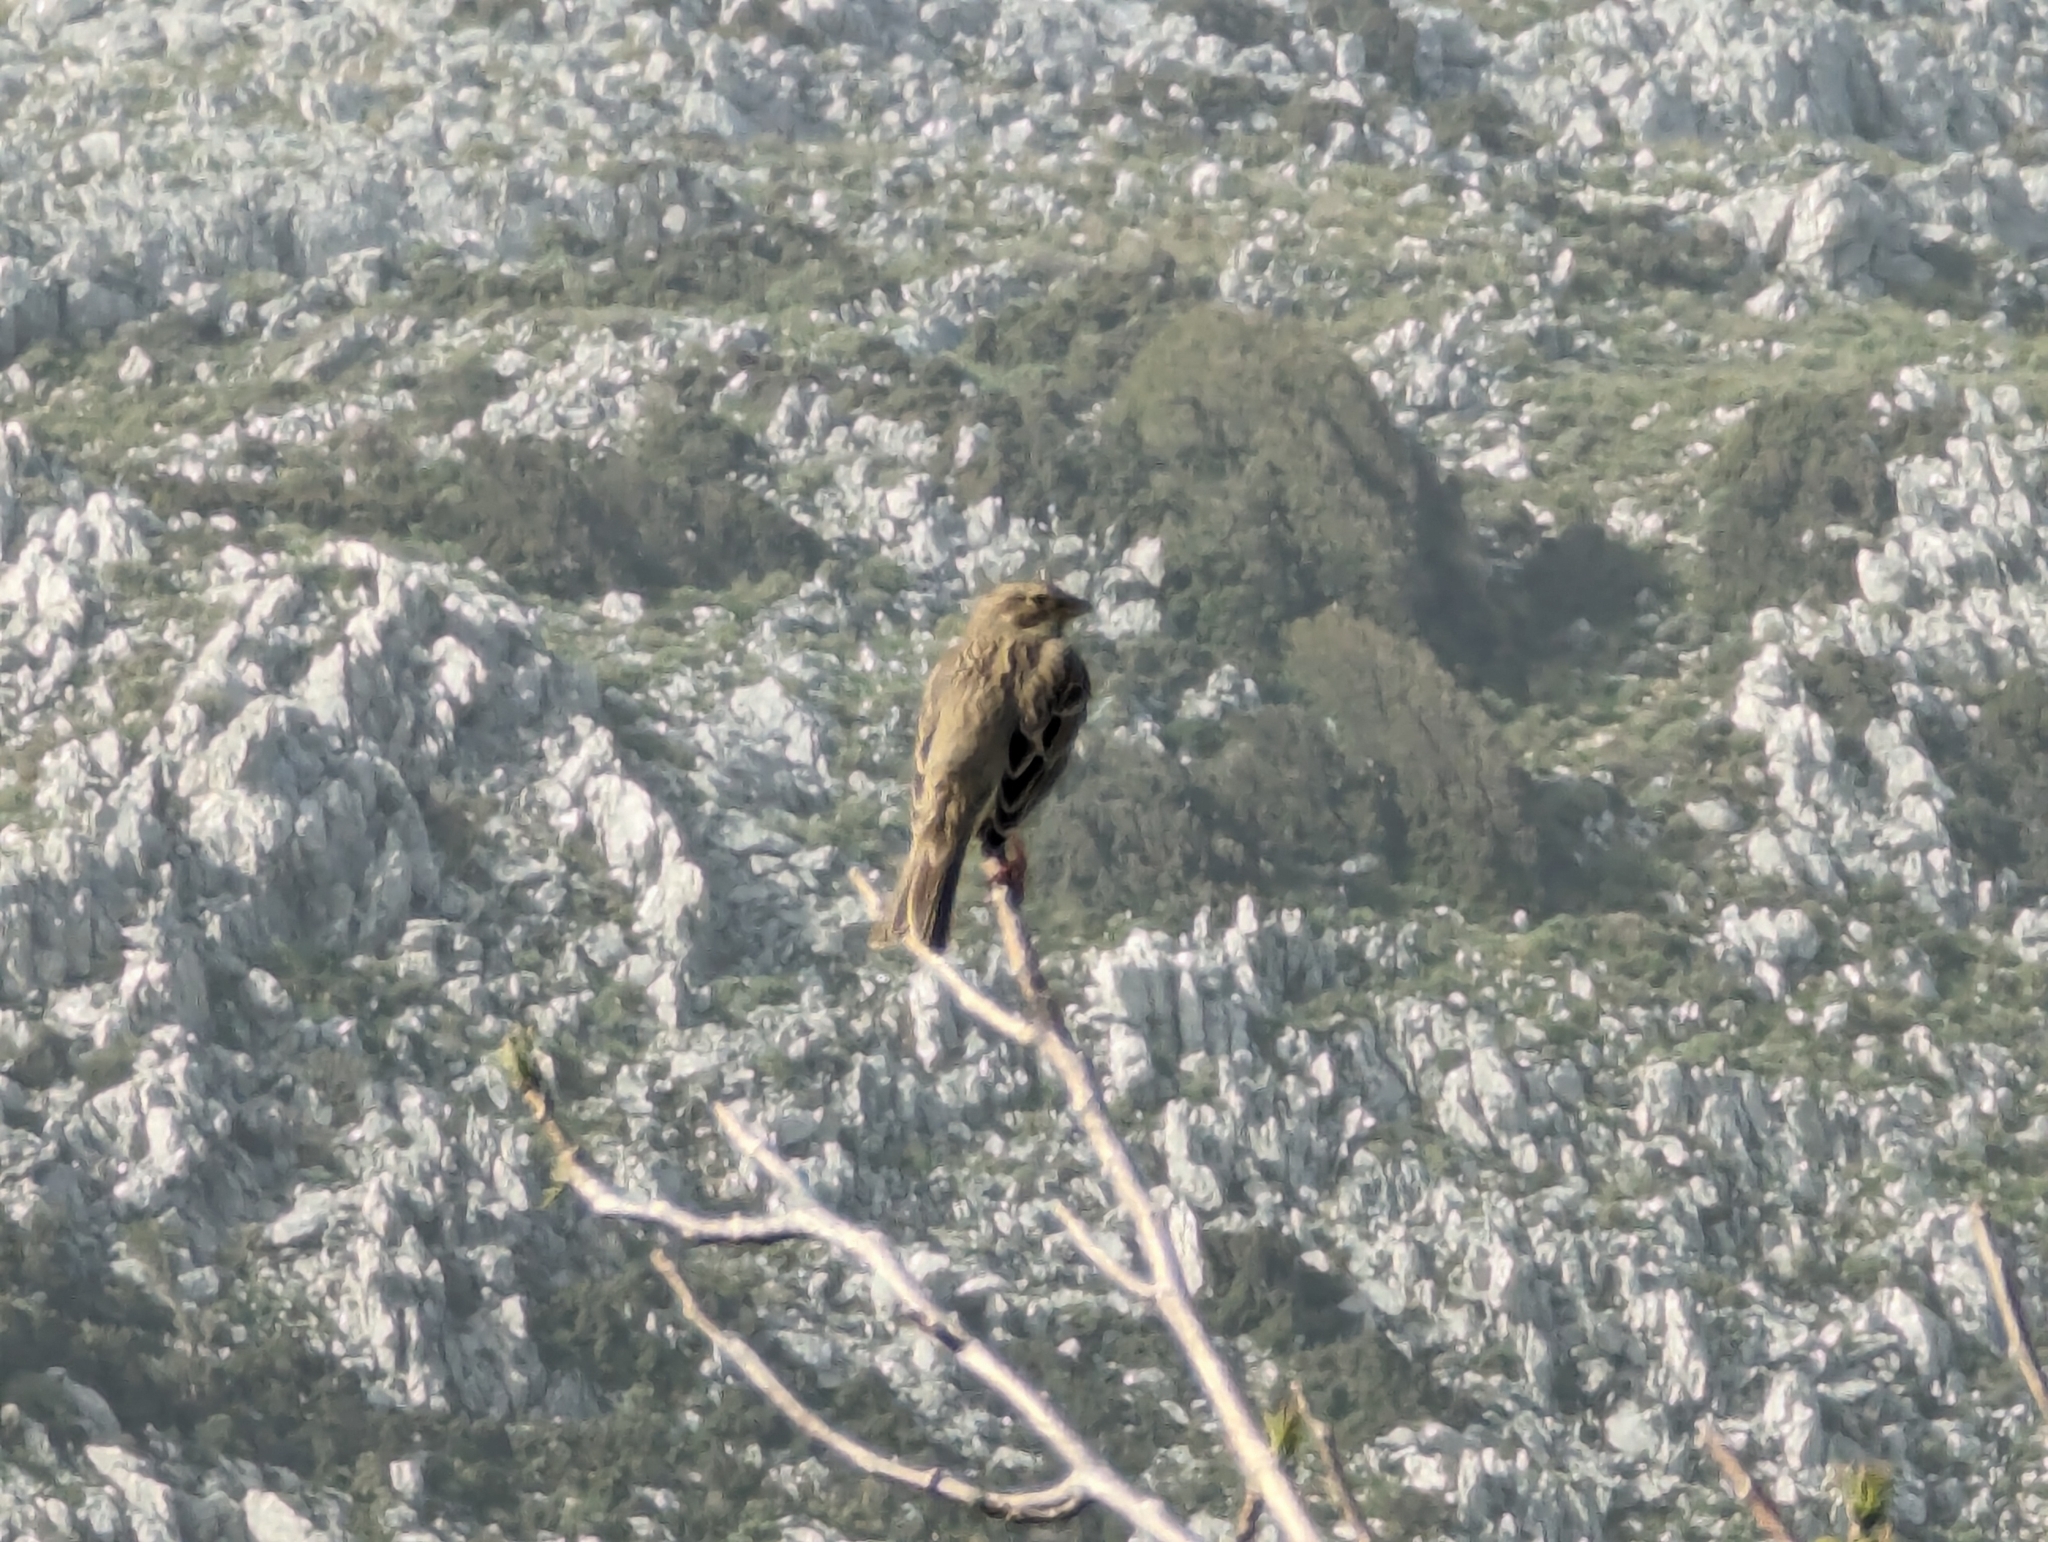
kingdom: Animalia
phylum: Chordata
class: Aves
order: Passeriformes
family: Emberizidae
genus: Emberiza
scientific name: Emberiza calandra
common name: Corn bunting
